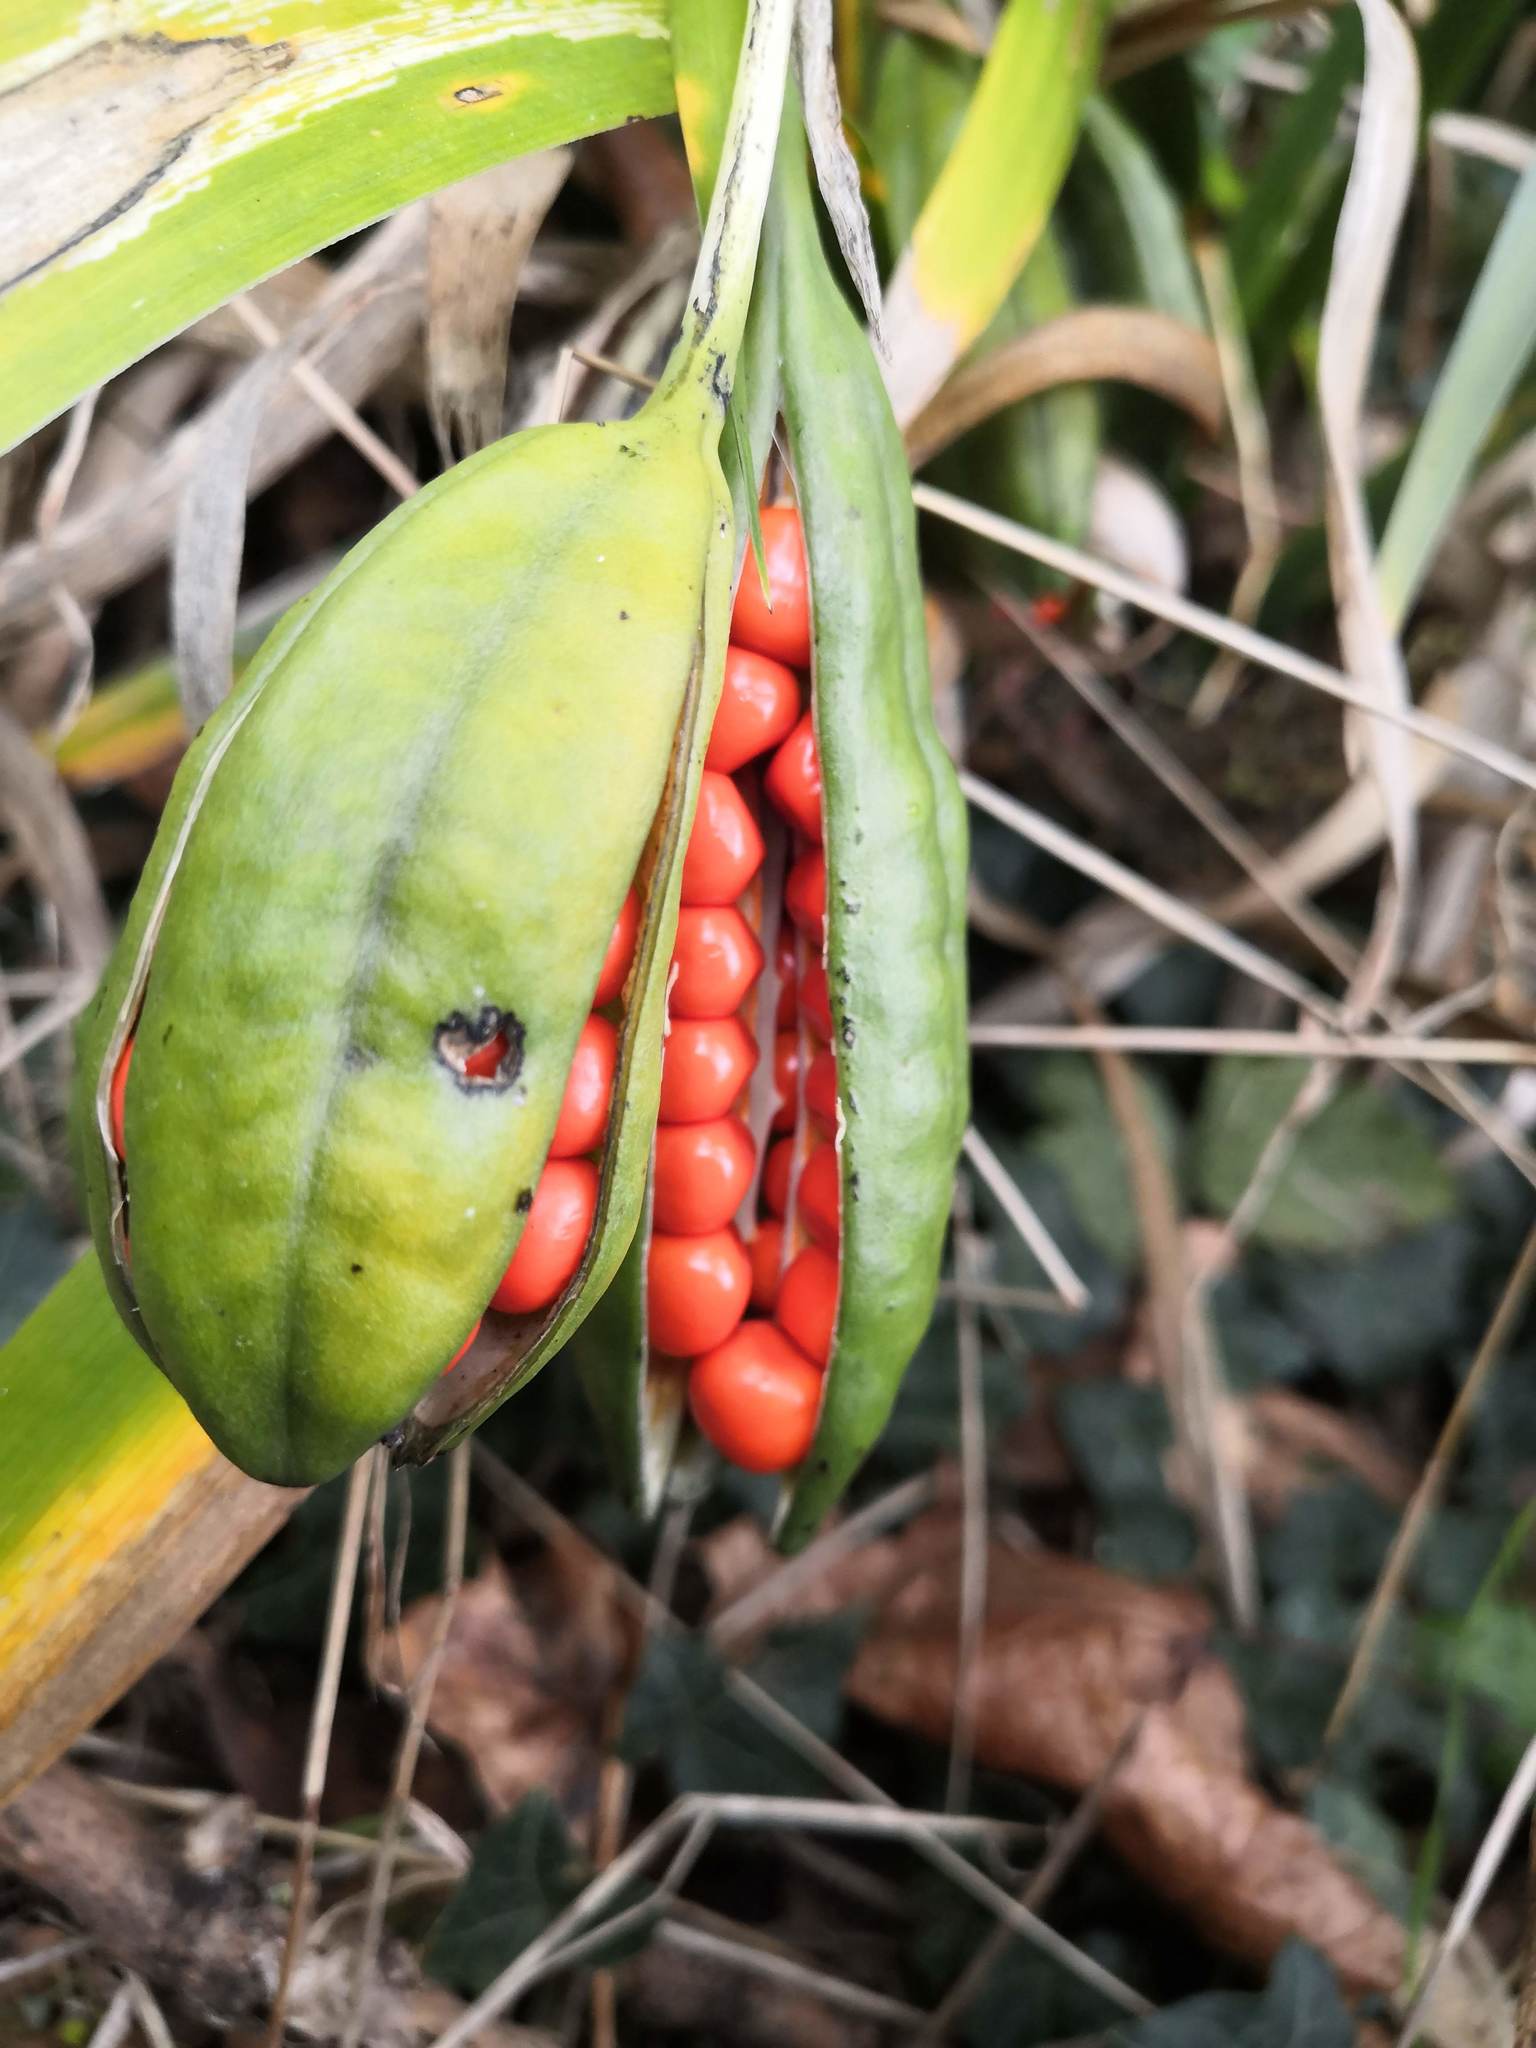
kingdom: Plantae
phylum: Tracheophyta
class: Liliopsida
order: Asparagales
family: Iridaceae
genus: Iris
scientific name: Iris foetidissima
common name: Stinking iris
